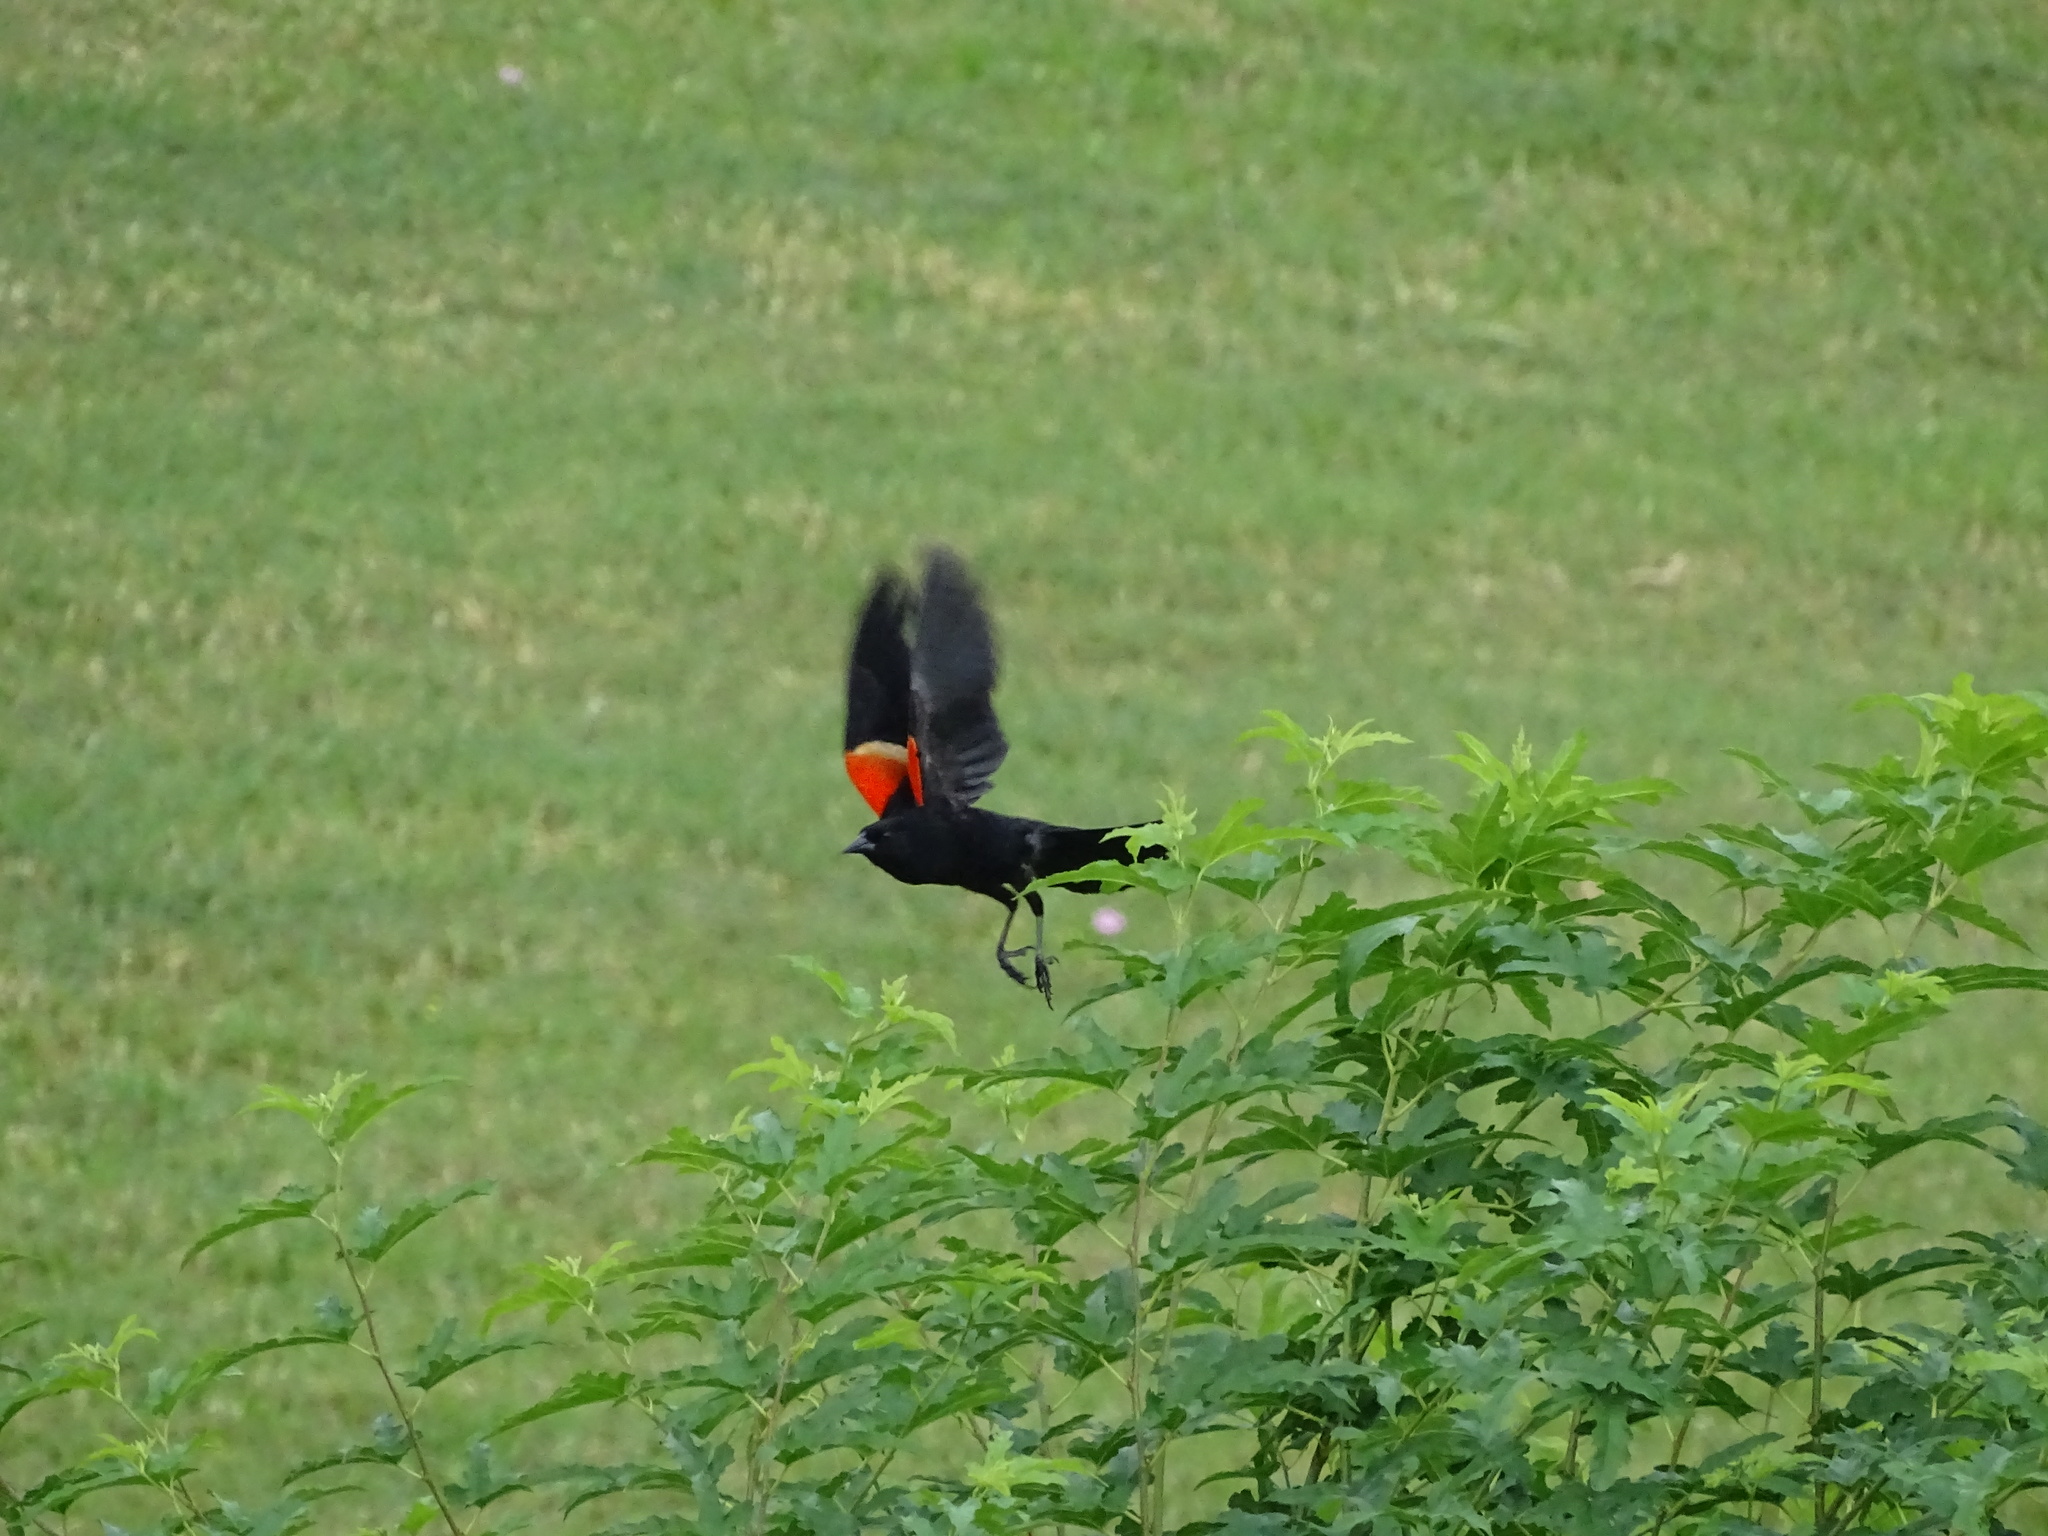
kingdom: Animalia
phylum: Chordata
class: Aves
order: Passeriformes
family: Icteridae
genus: Agelaius
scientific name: Agelaius phoeniceus
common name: Red-winged blackbird
